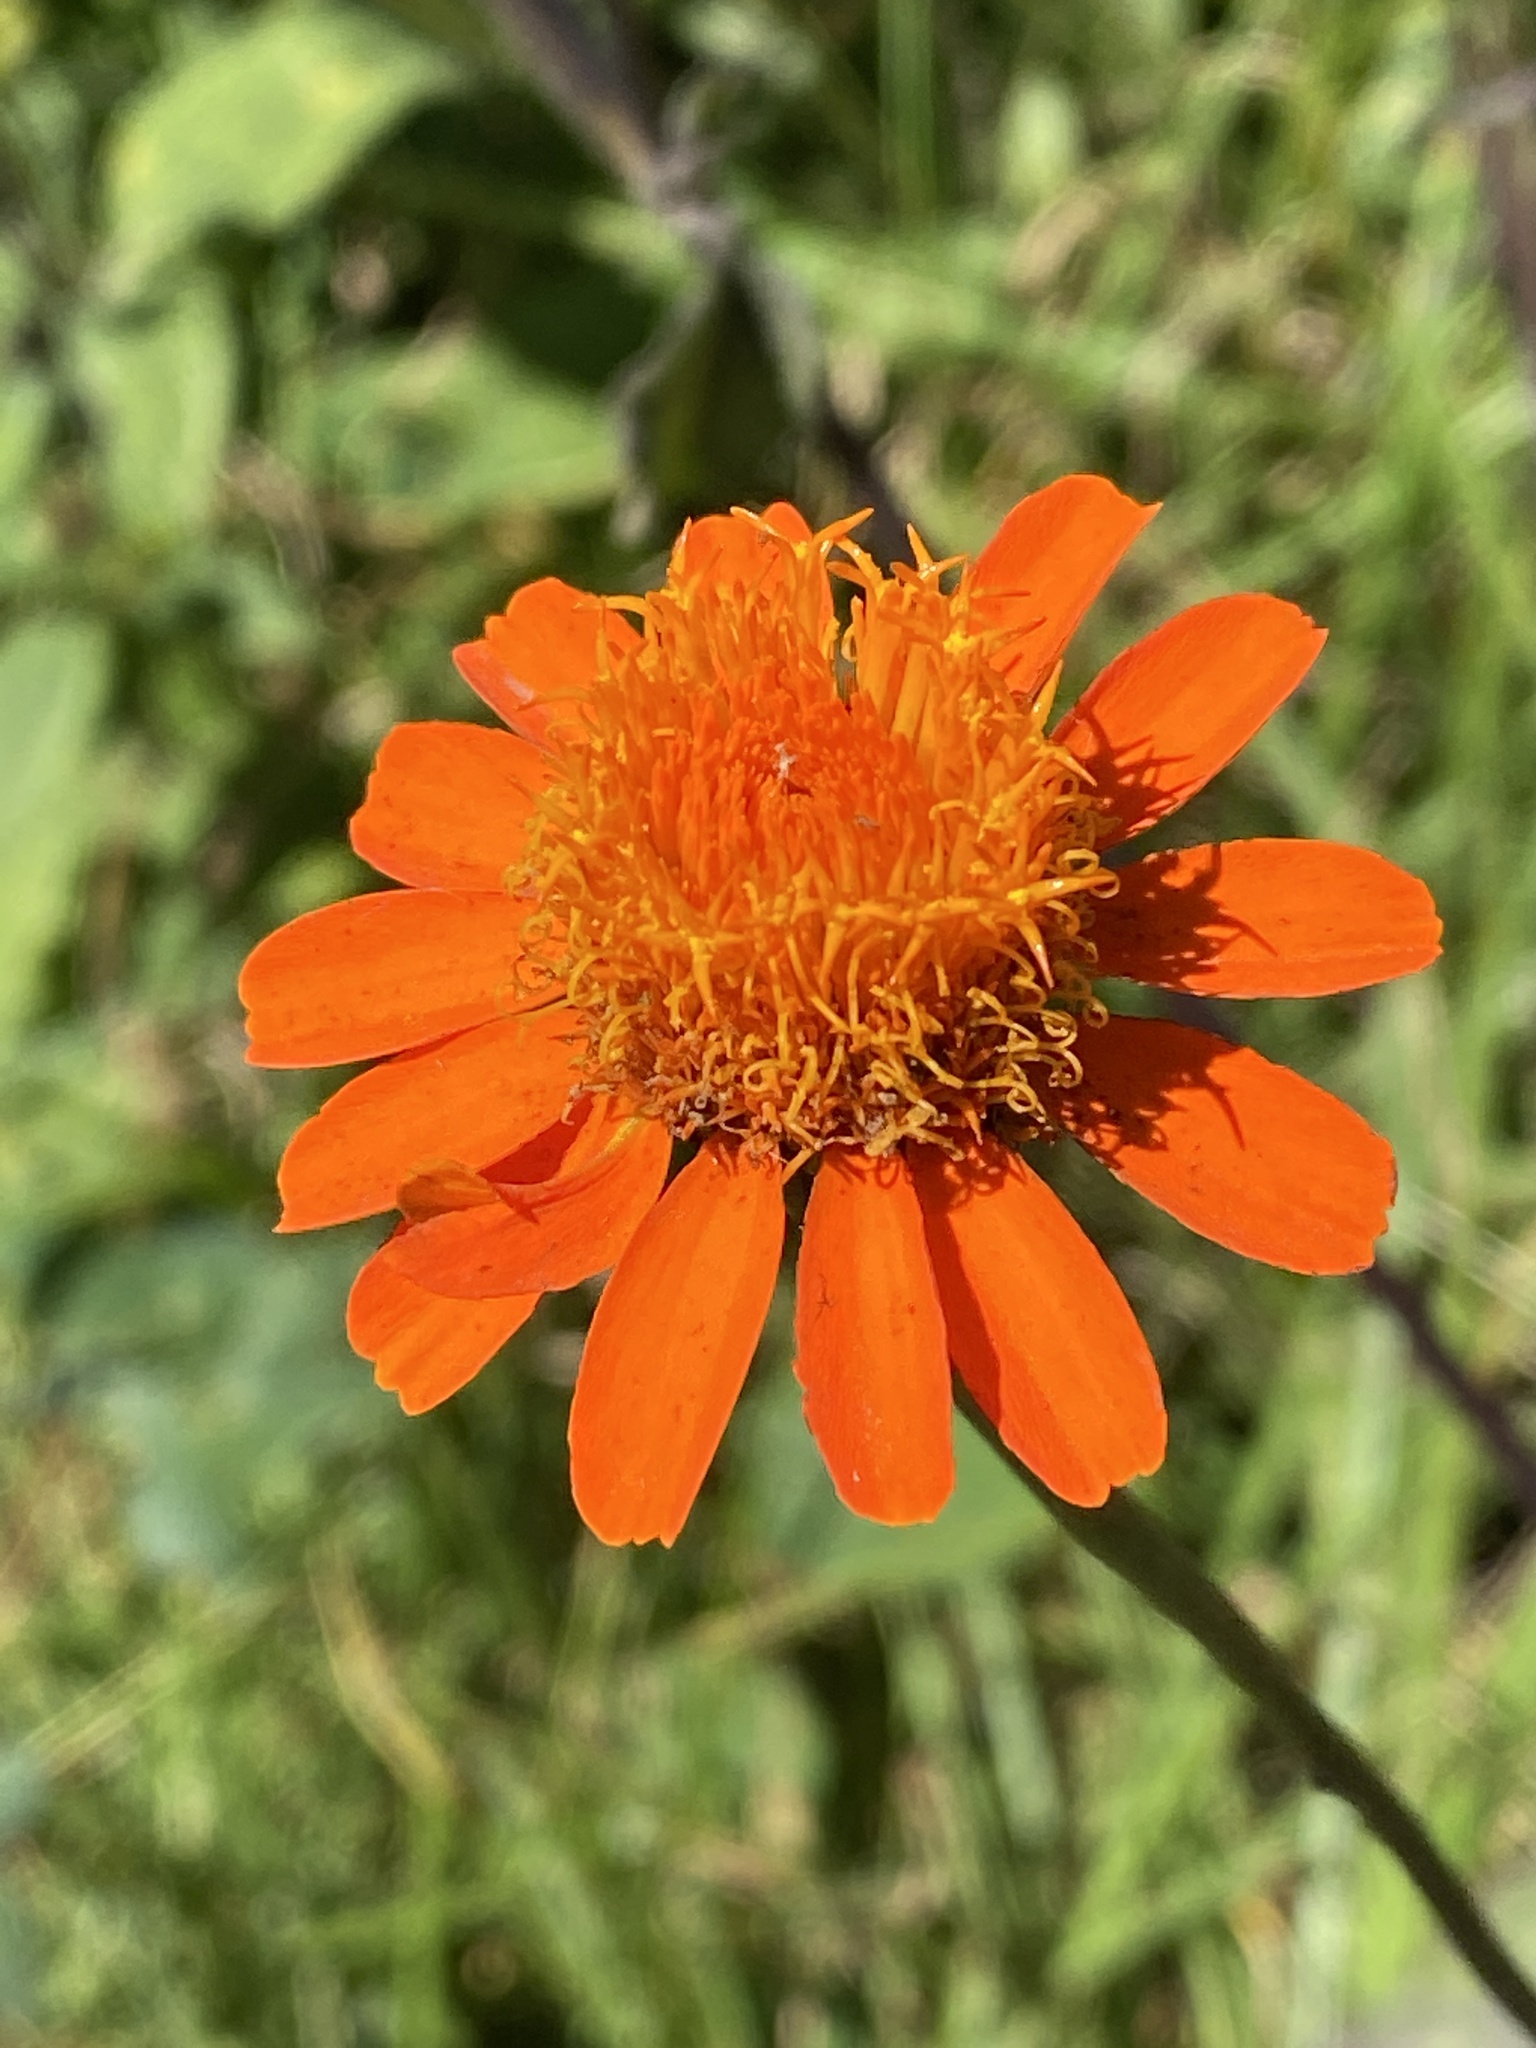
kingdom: Plantae
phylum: Tracheophyta
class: Magnoliopsida
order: Asterales
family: Asteraceae
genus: Comaclinium
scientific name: Comaclinium montanum
